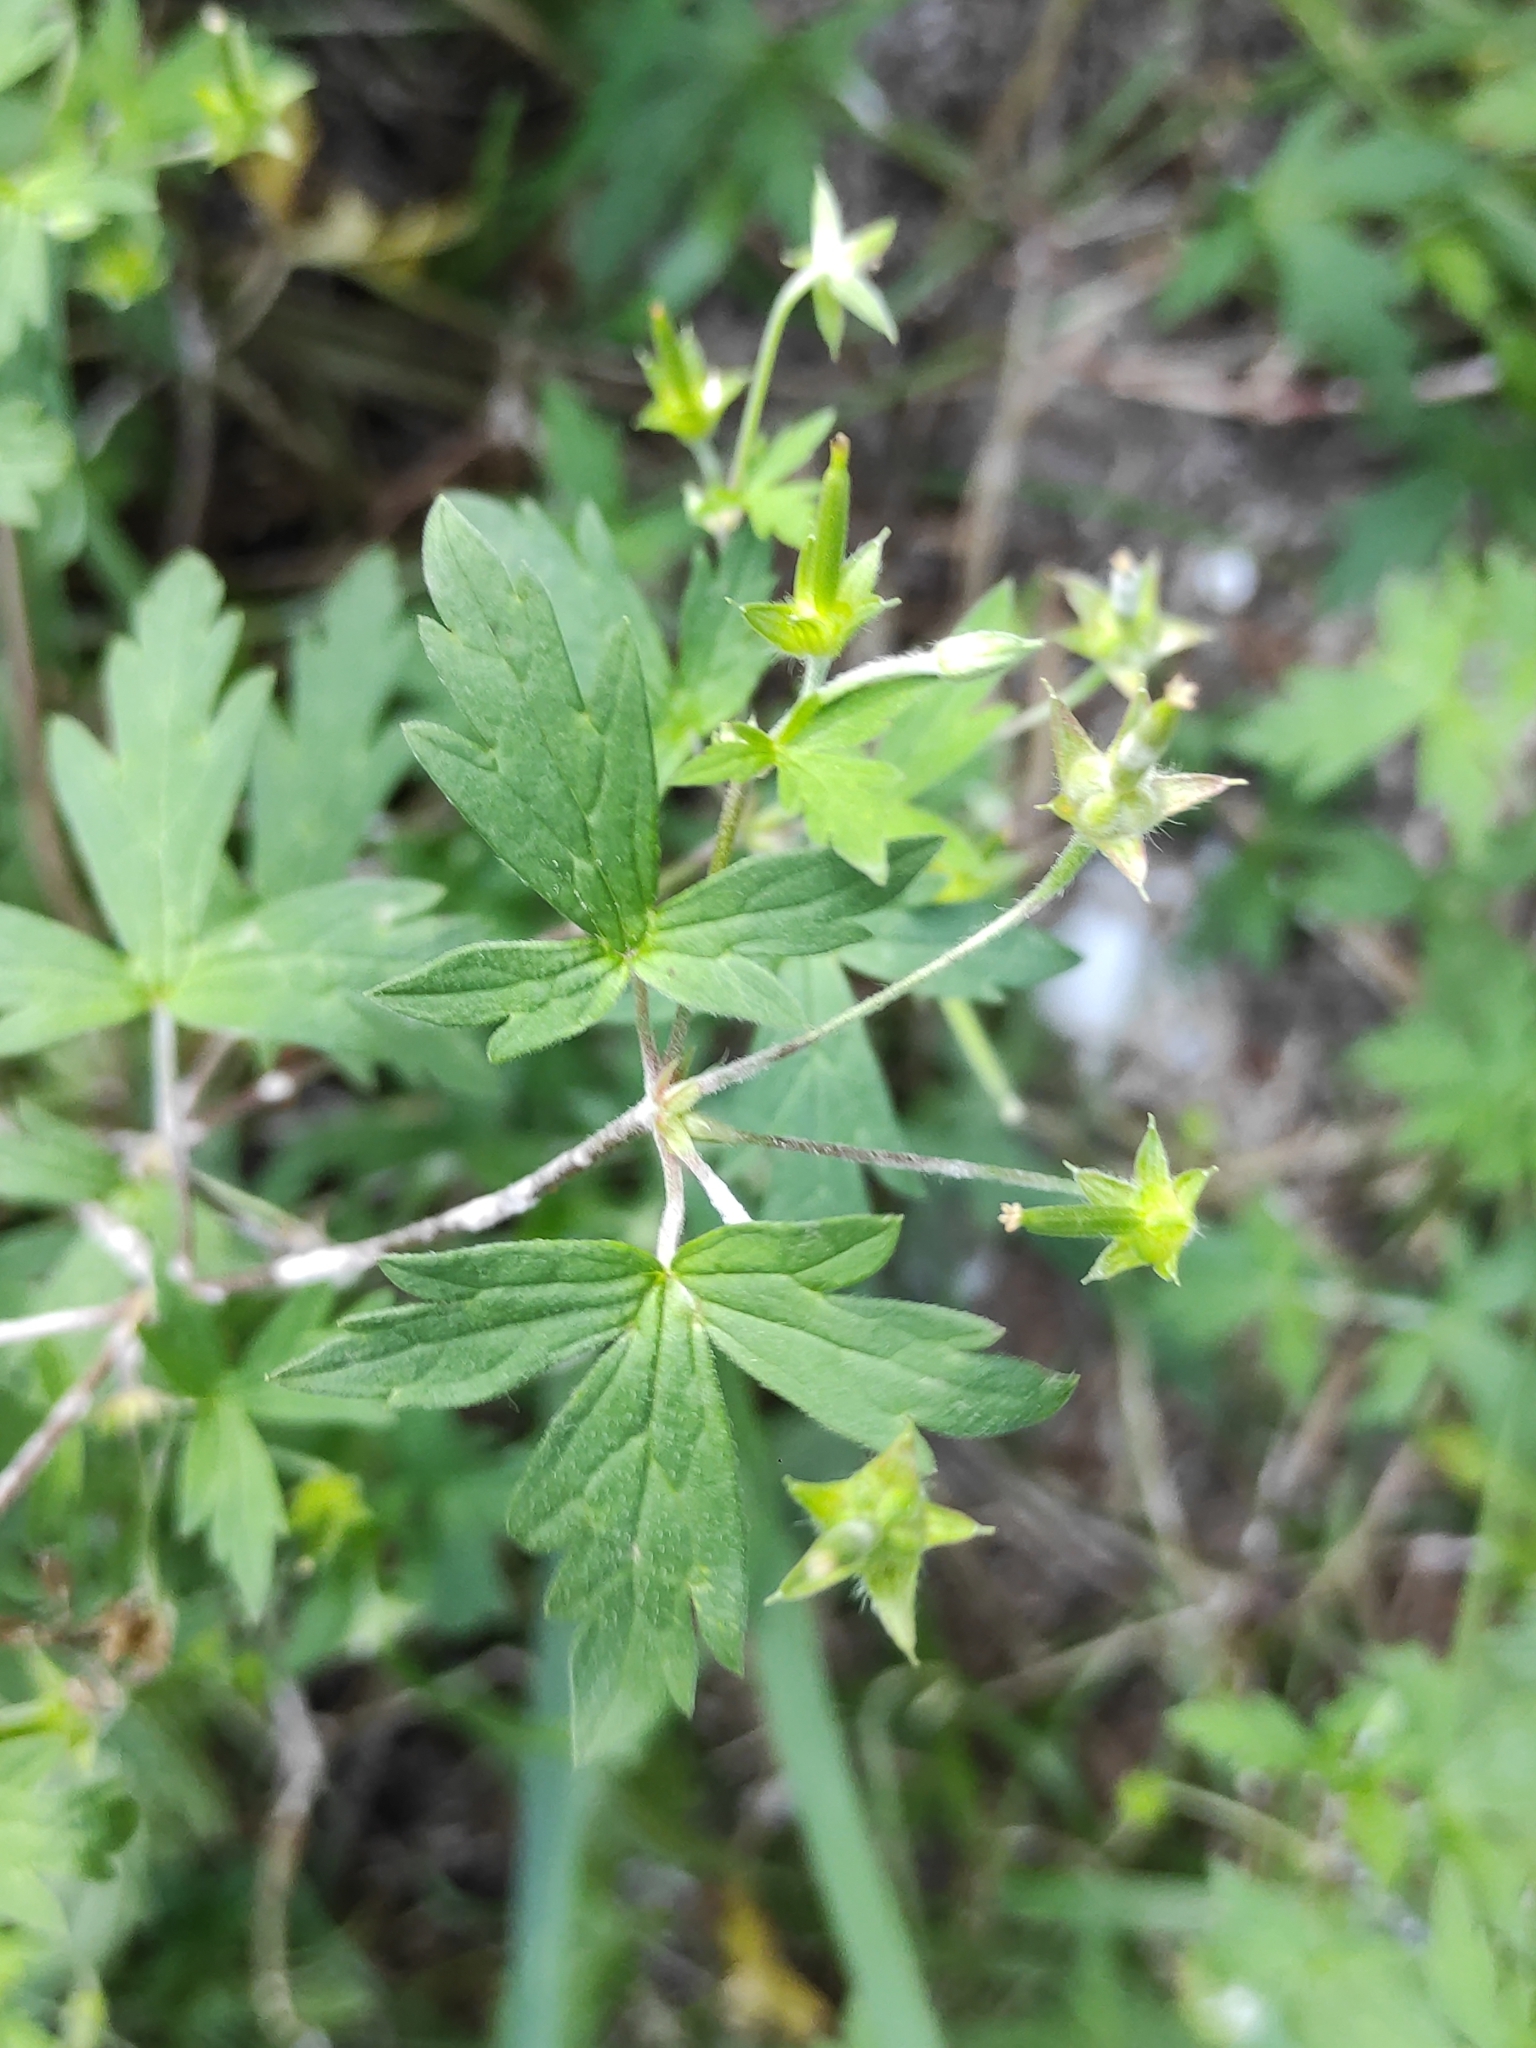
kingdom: Plantae
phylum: Tracheophyta
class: Magnoliopsida
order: Geraniales
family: Geraniaceae
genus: Geranium
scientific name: Geranium sibiricum
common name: Siberian crane's-bill
